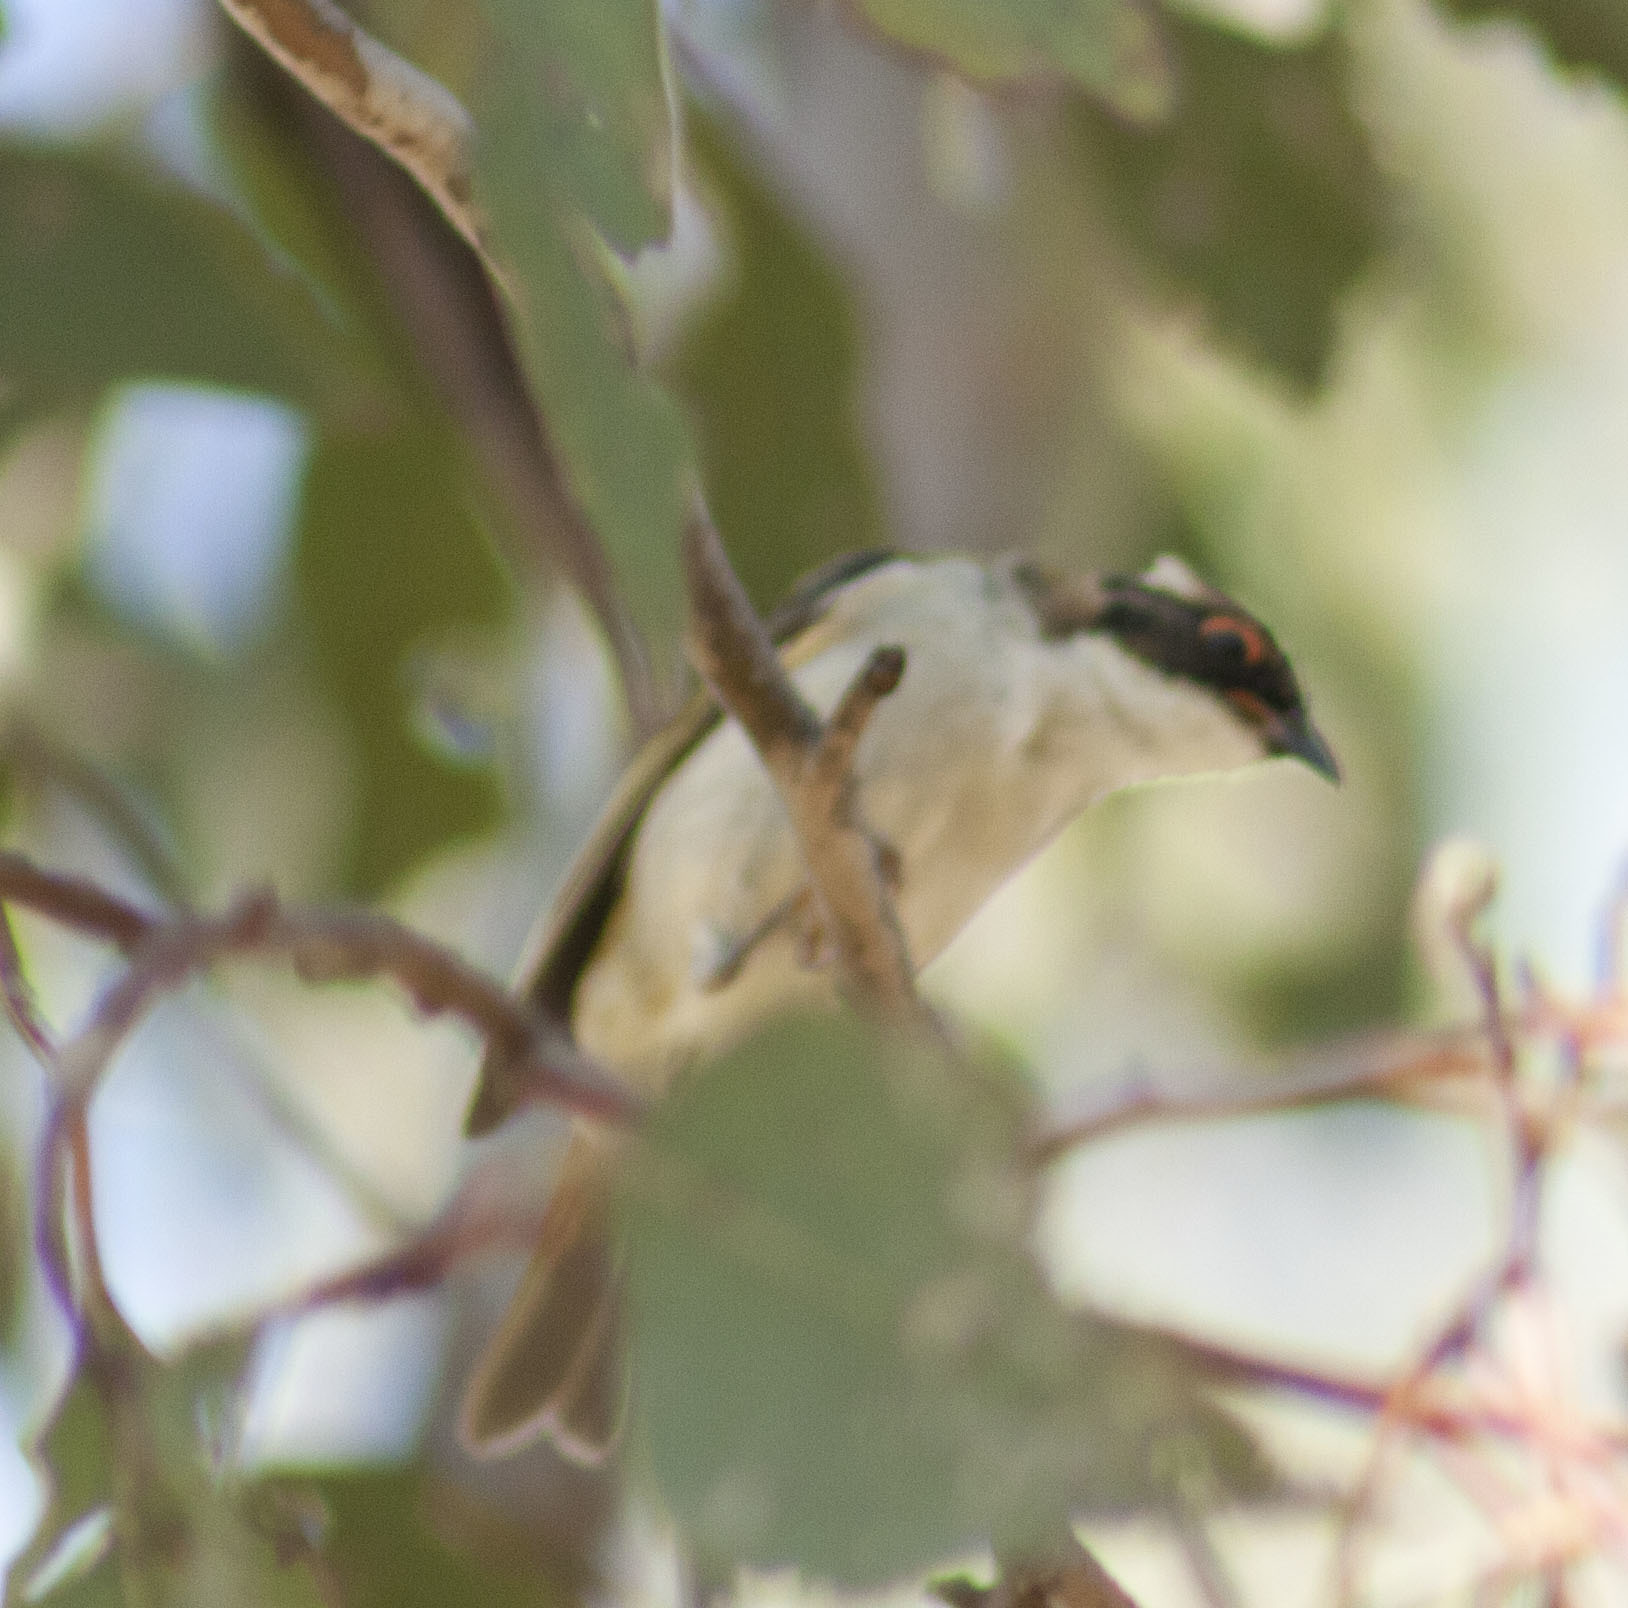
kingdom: Animalia
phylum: Chordata
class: Aves
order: Passeriformes
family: Meliphagidae
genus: Melithreptus
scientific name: Melithreptus lunatus
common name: White-naped honeyeater
